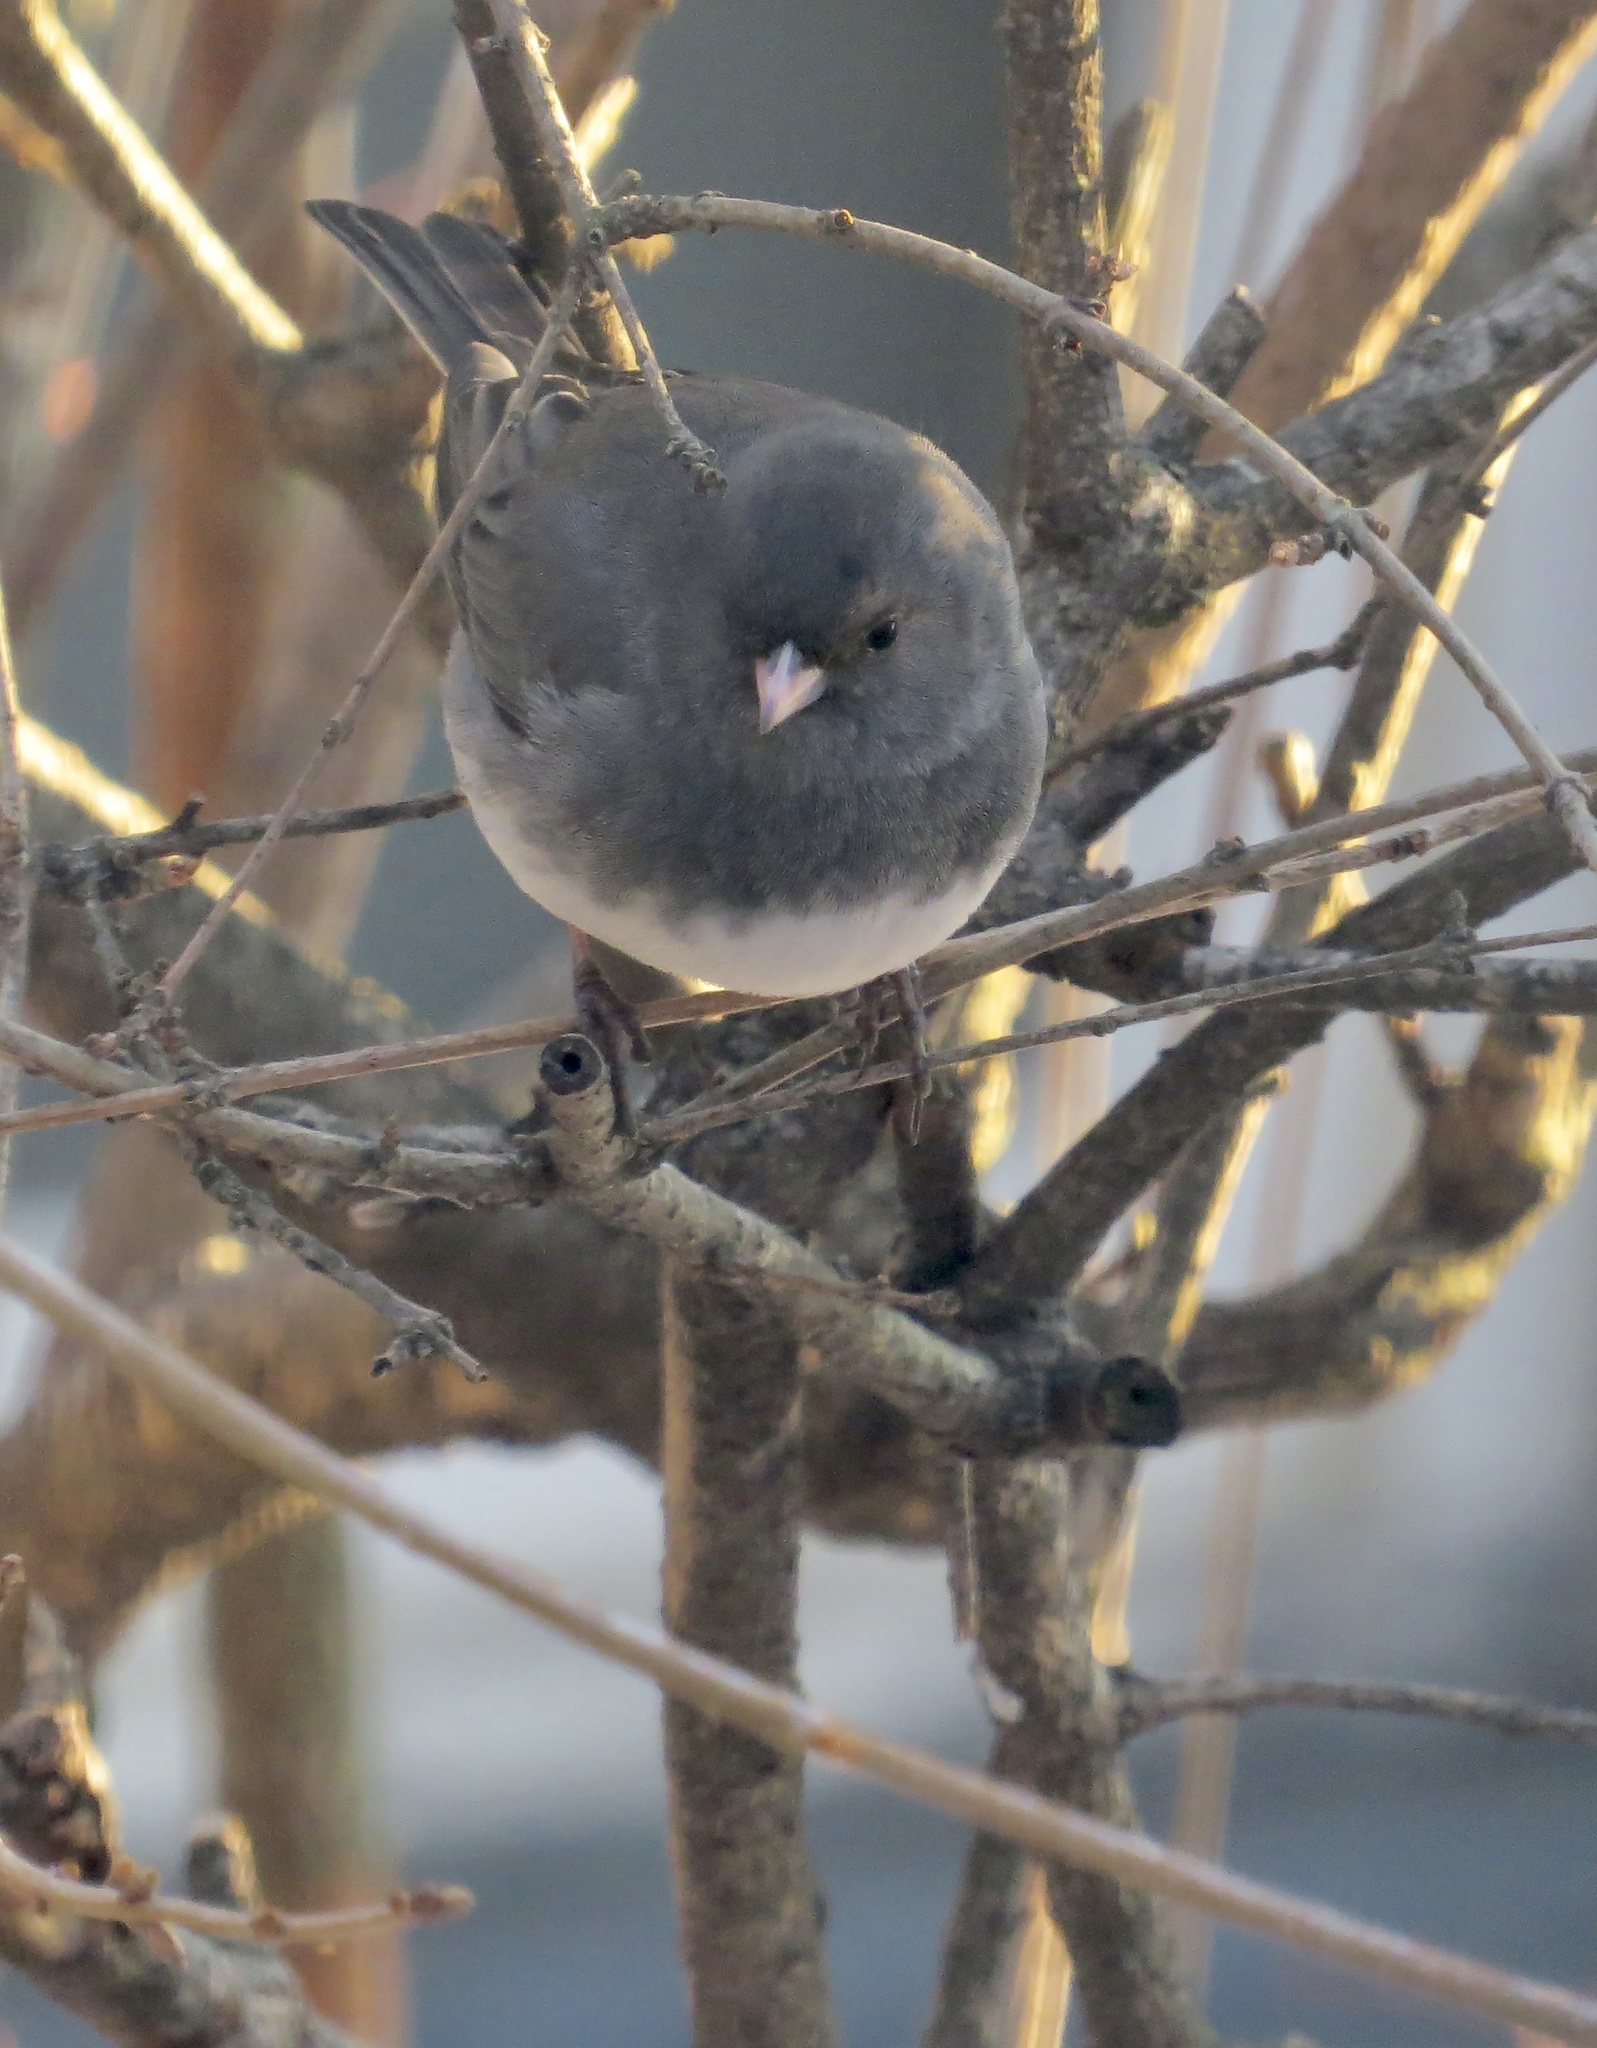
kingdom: Animalia
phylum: Chordata
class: Aves
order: Passeriformes
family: Passerellidae
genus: Junco
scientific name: Junco hyemalis
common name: Dark-eyed junco
